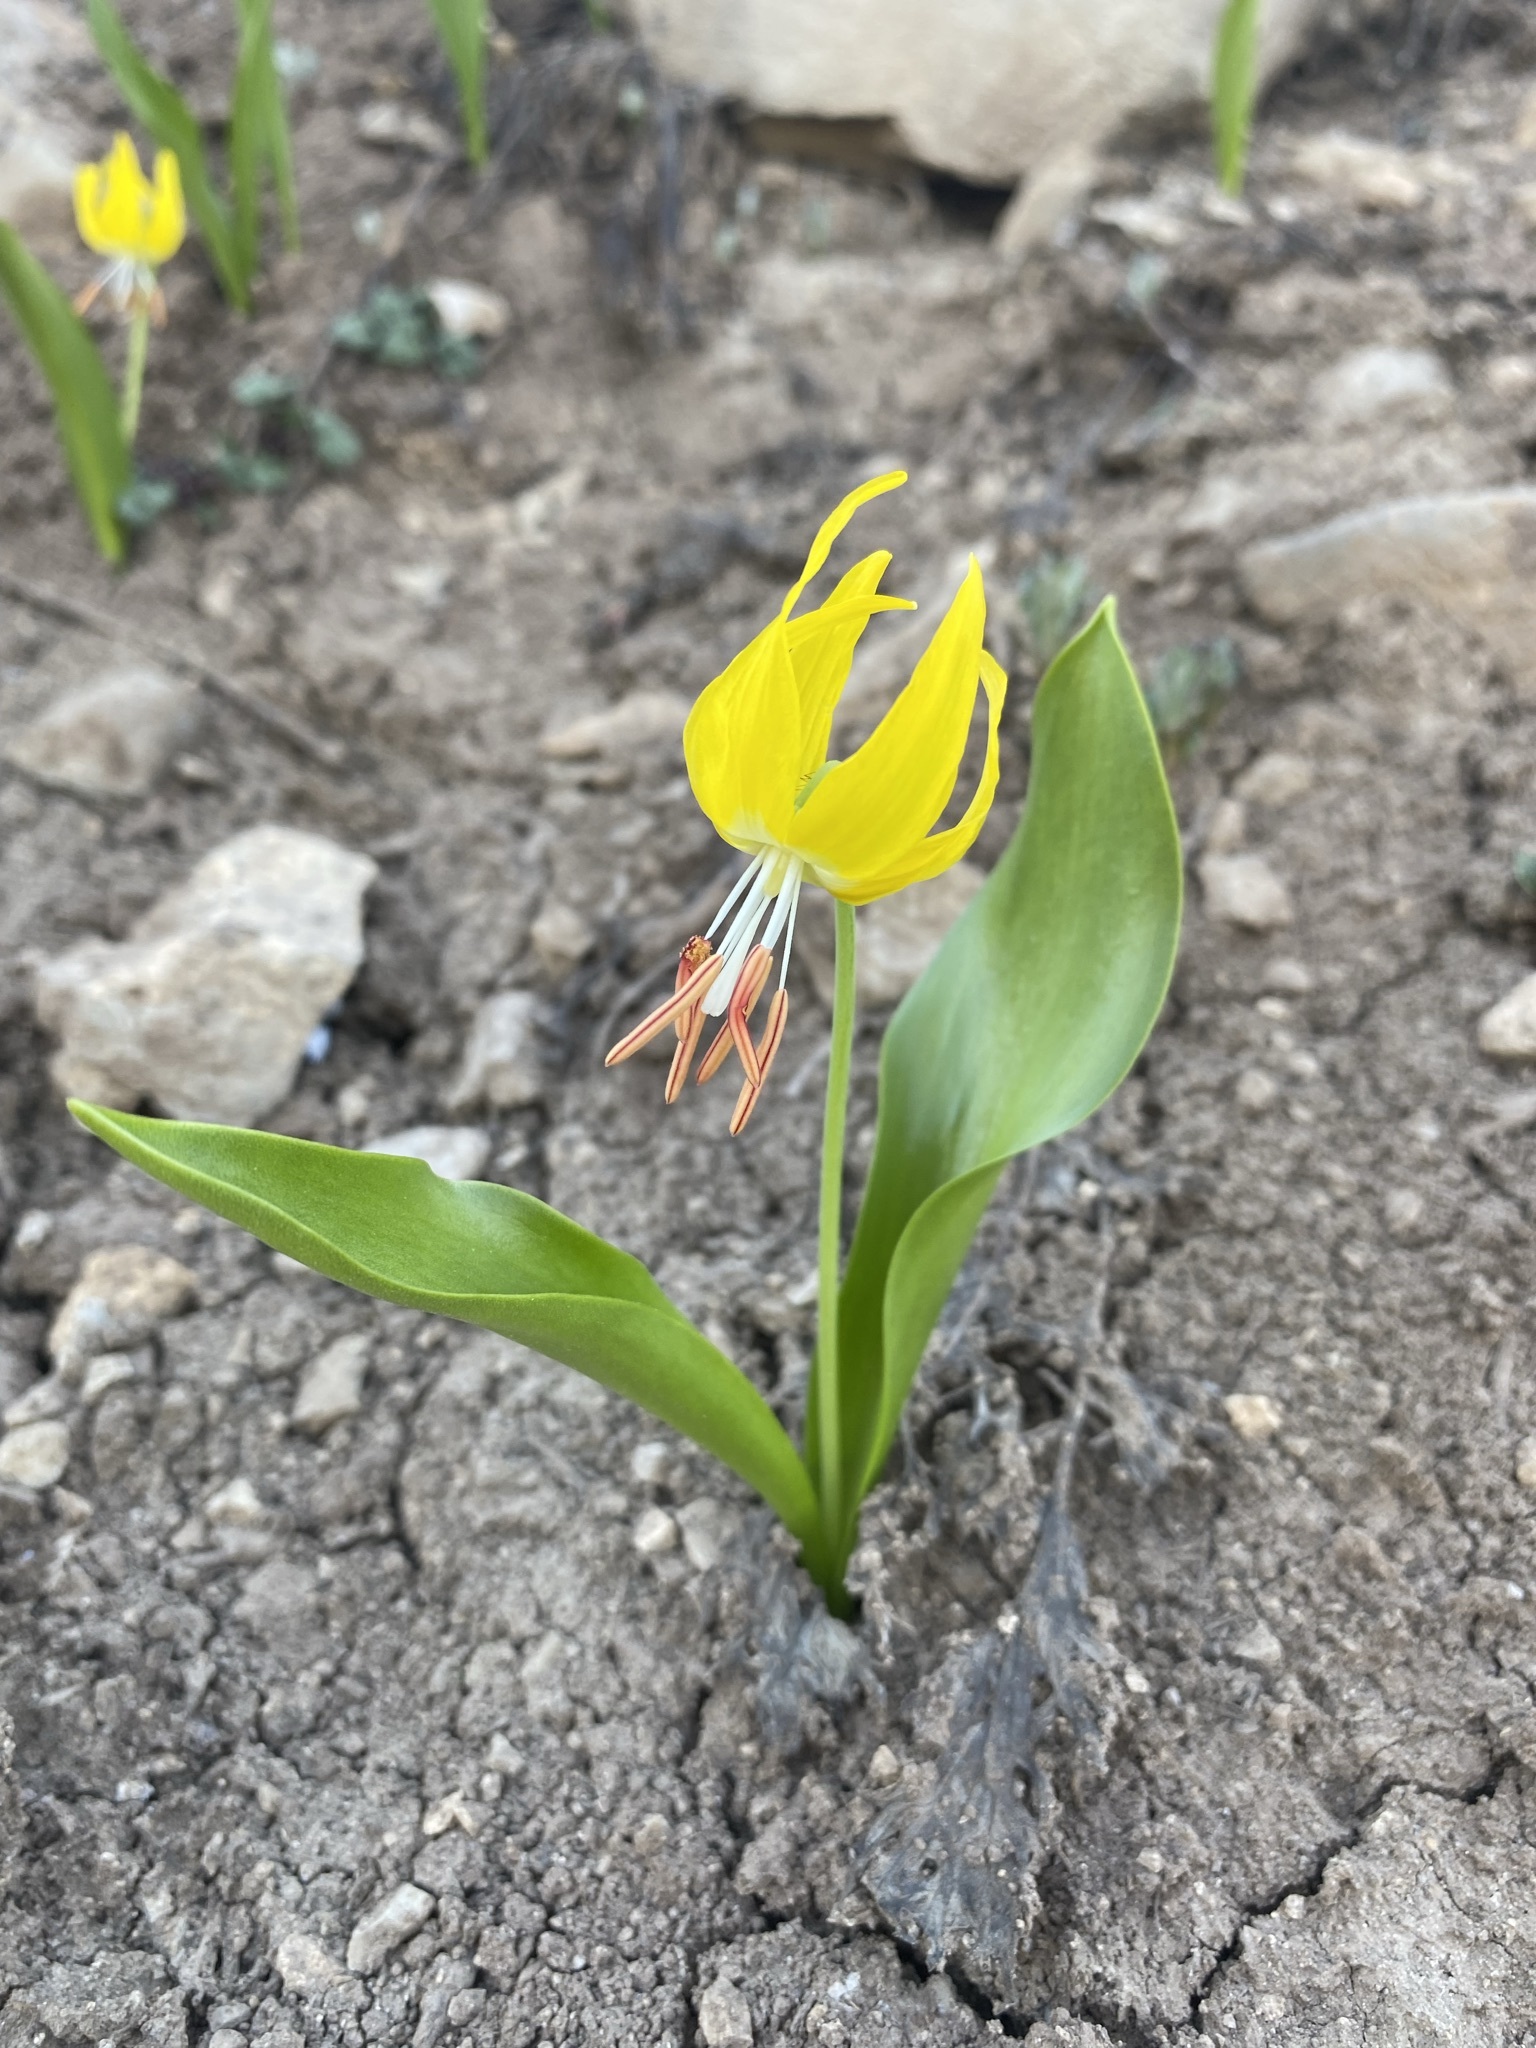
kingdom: Plantae
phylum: Tracheophyta
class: Liliopsida
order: Liliales
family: Liliaceae
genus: Erythronium
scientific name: Erythronium grandiflorum
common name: Avalanche-lily
